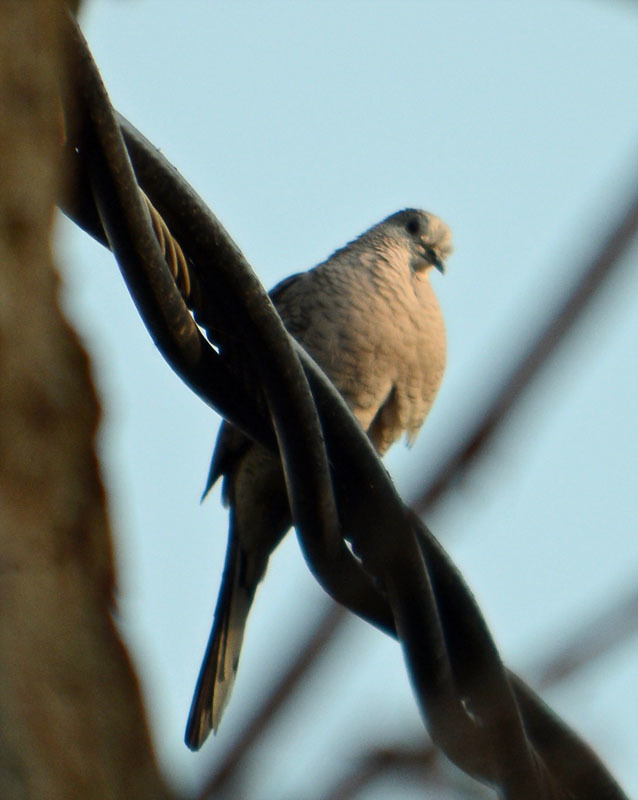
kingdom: Animalia
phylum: Chordata
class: Aves
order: Columbiformes
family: Columbidae
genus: Columbina
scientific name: Columbina inca
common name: Inca dove
